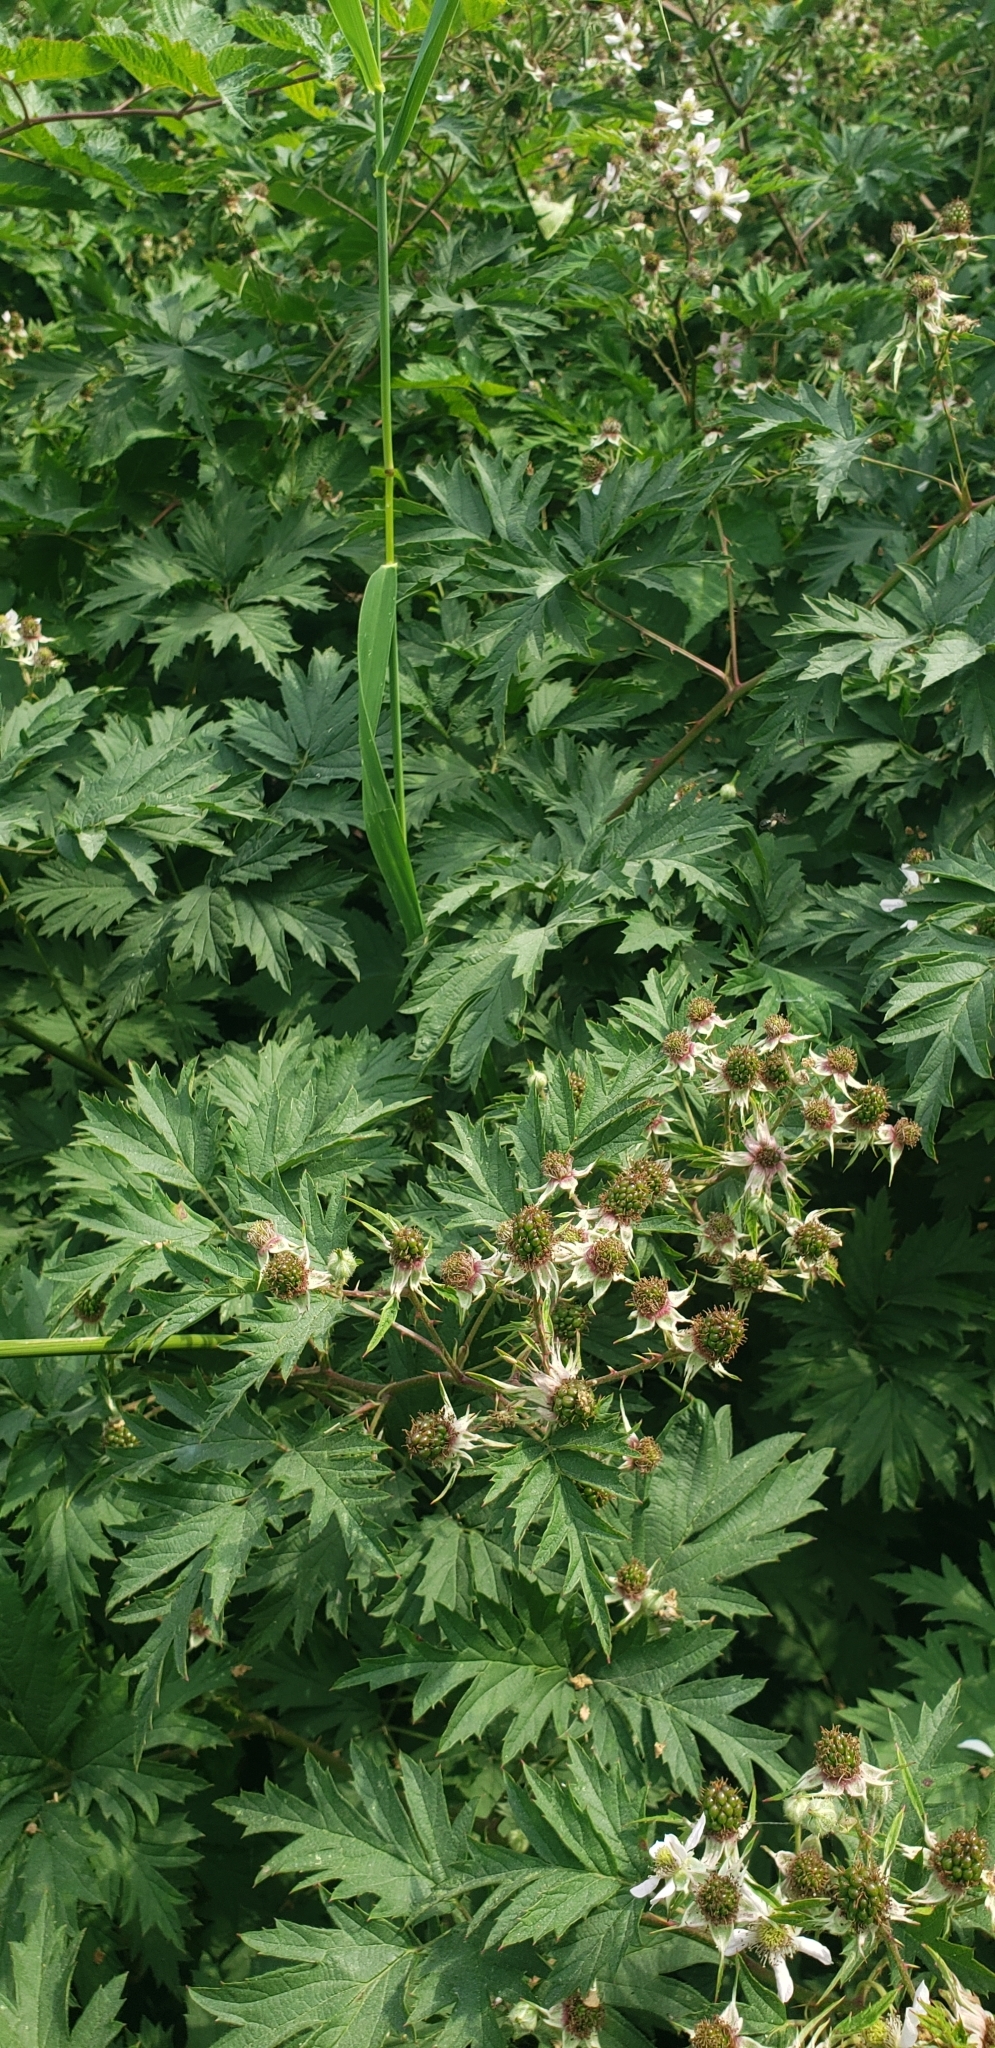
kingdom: Plantae
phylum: Tracheophyta
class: Magnoliopsida
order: Rosales
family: Rosaceae
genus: Rubus
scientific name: Rubus laciniatus
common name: Evergreen blackberry
